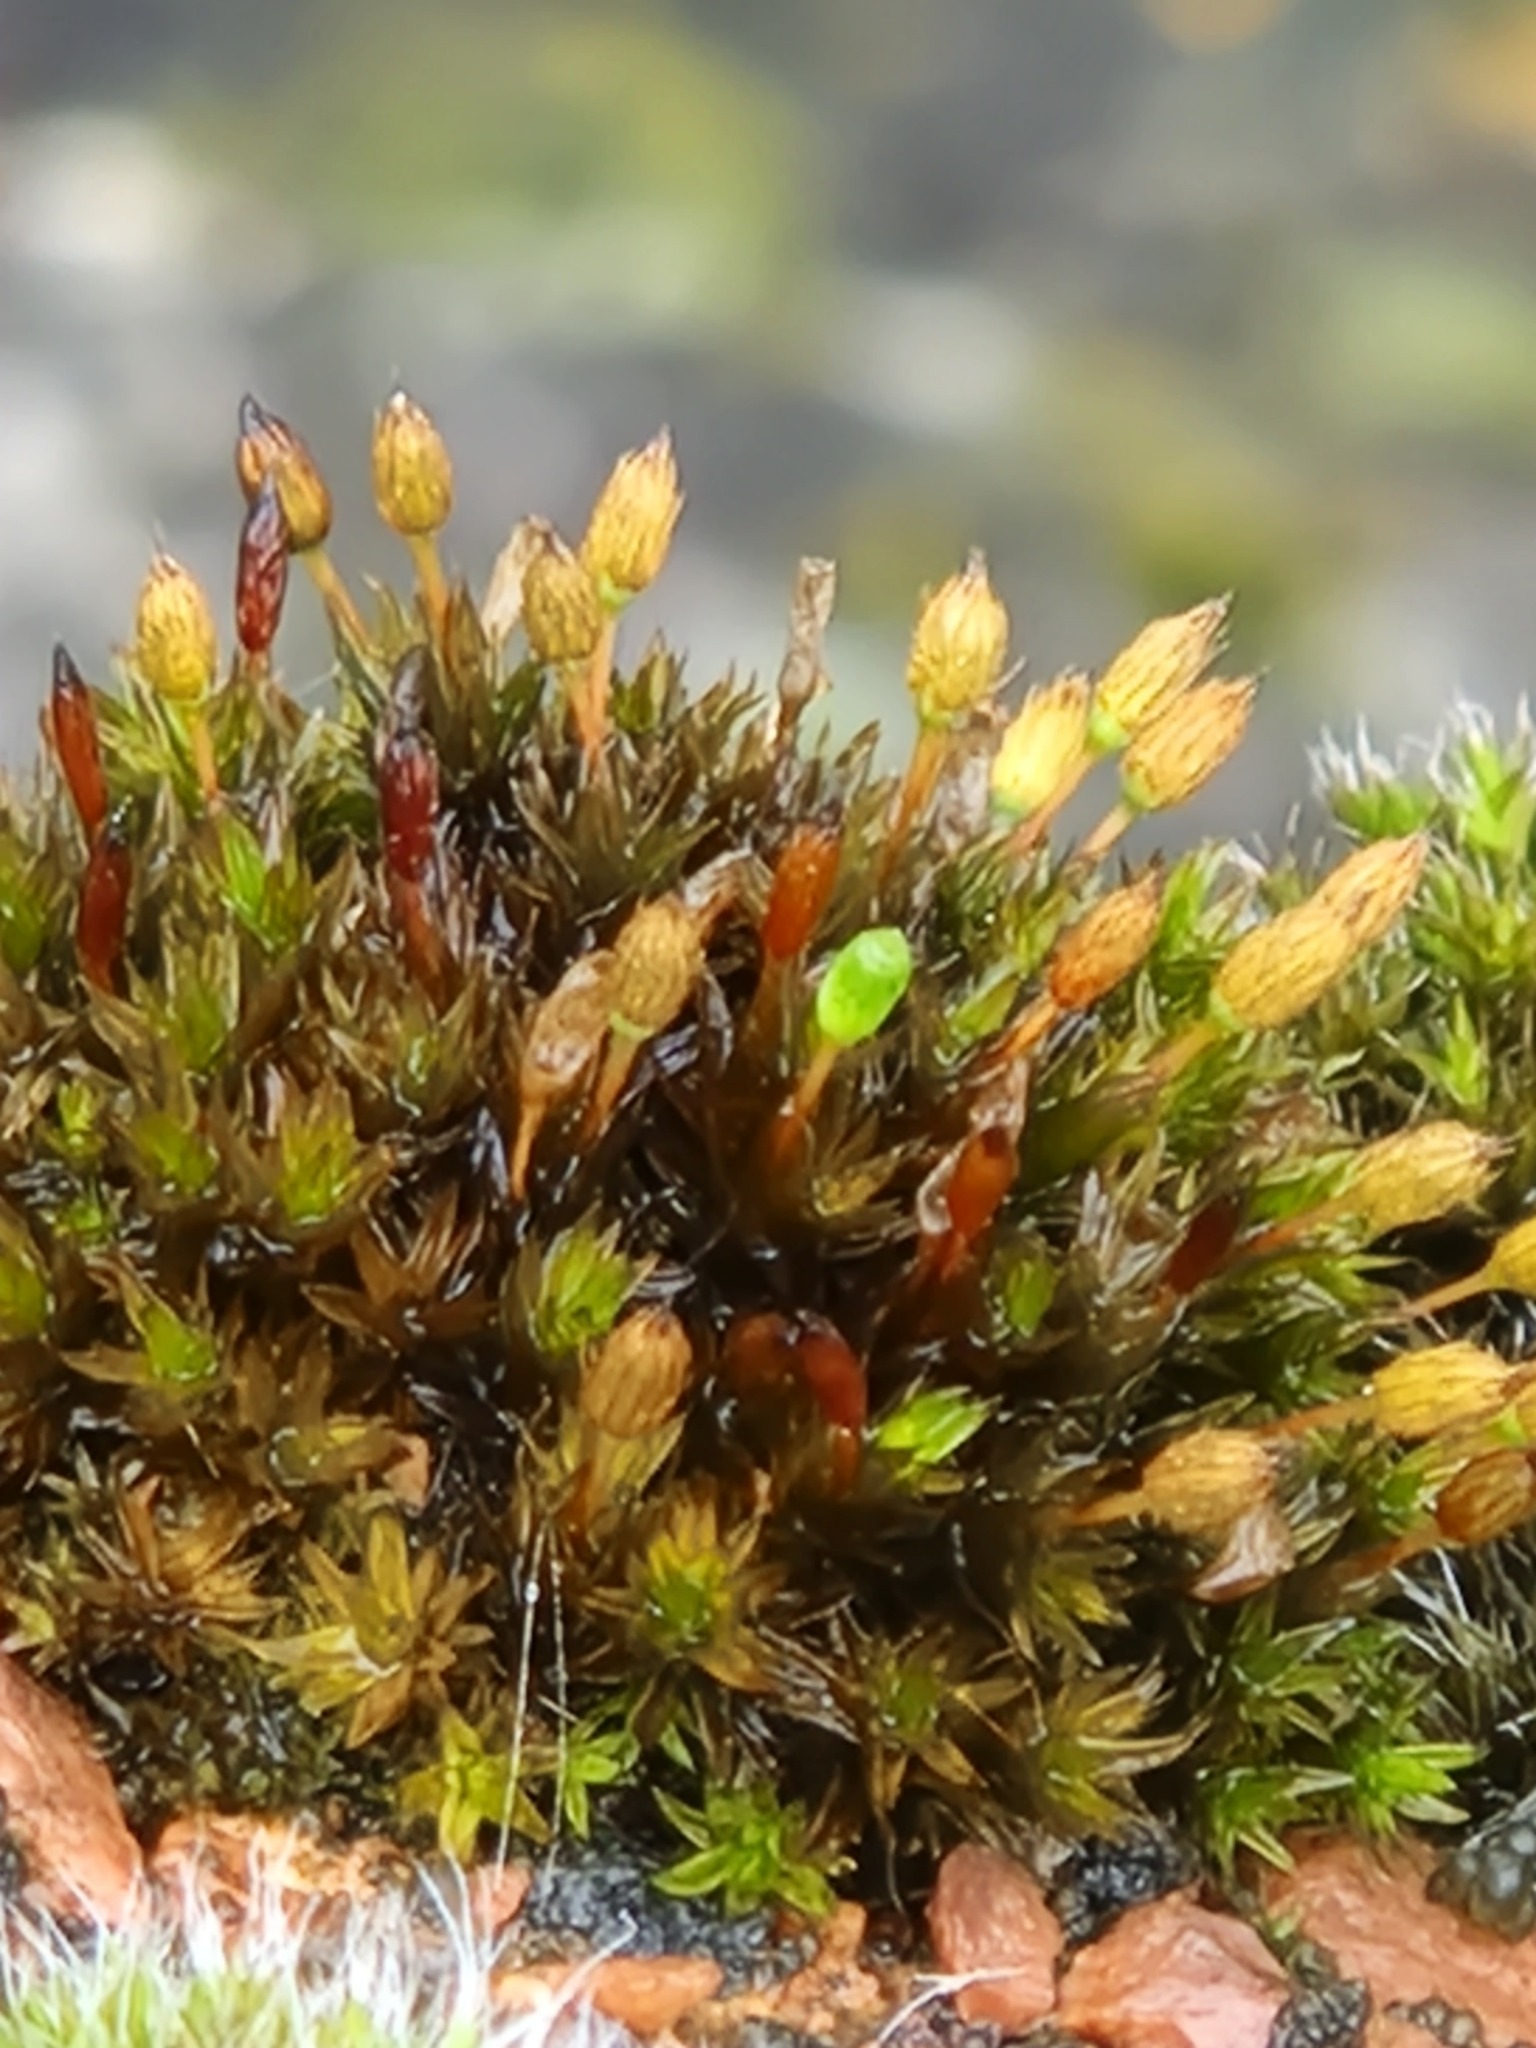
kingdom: Plantae
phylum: Bryophyta
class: Bryopsida
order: Orthotrichales
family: Orthotrichaceae
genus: Orthotrichum
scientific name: Orthotrichum anomalum
